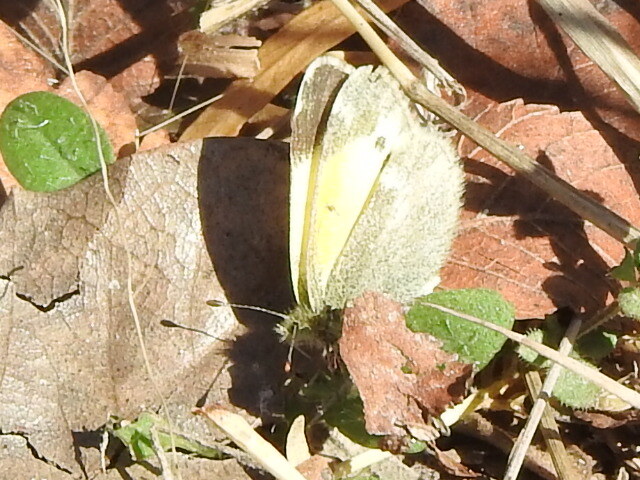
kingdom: Animalia
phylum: Arthropoda
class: Insecta
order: Lepidoptera
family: Pieridae
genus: Nathalis
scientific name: Nathalis iole
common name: Dainty sulphur
